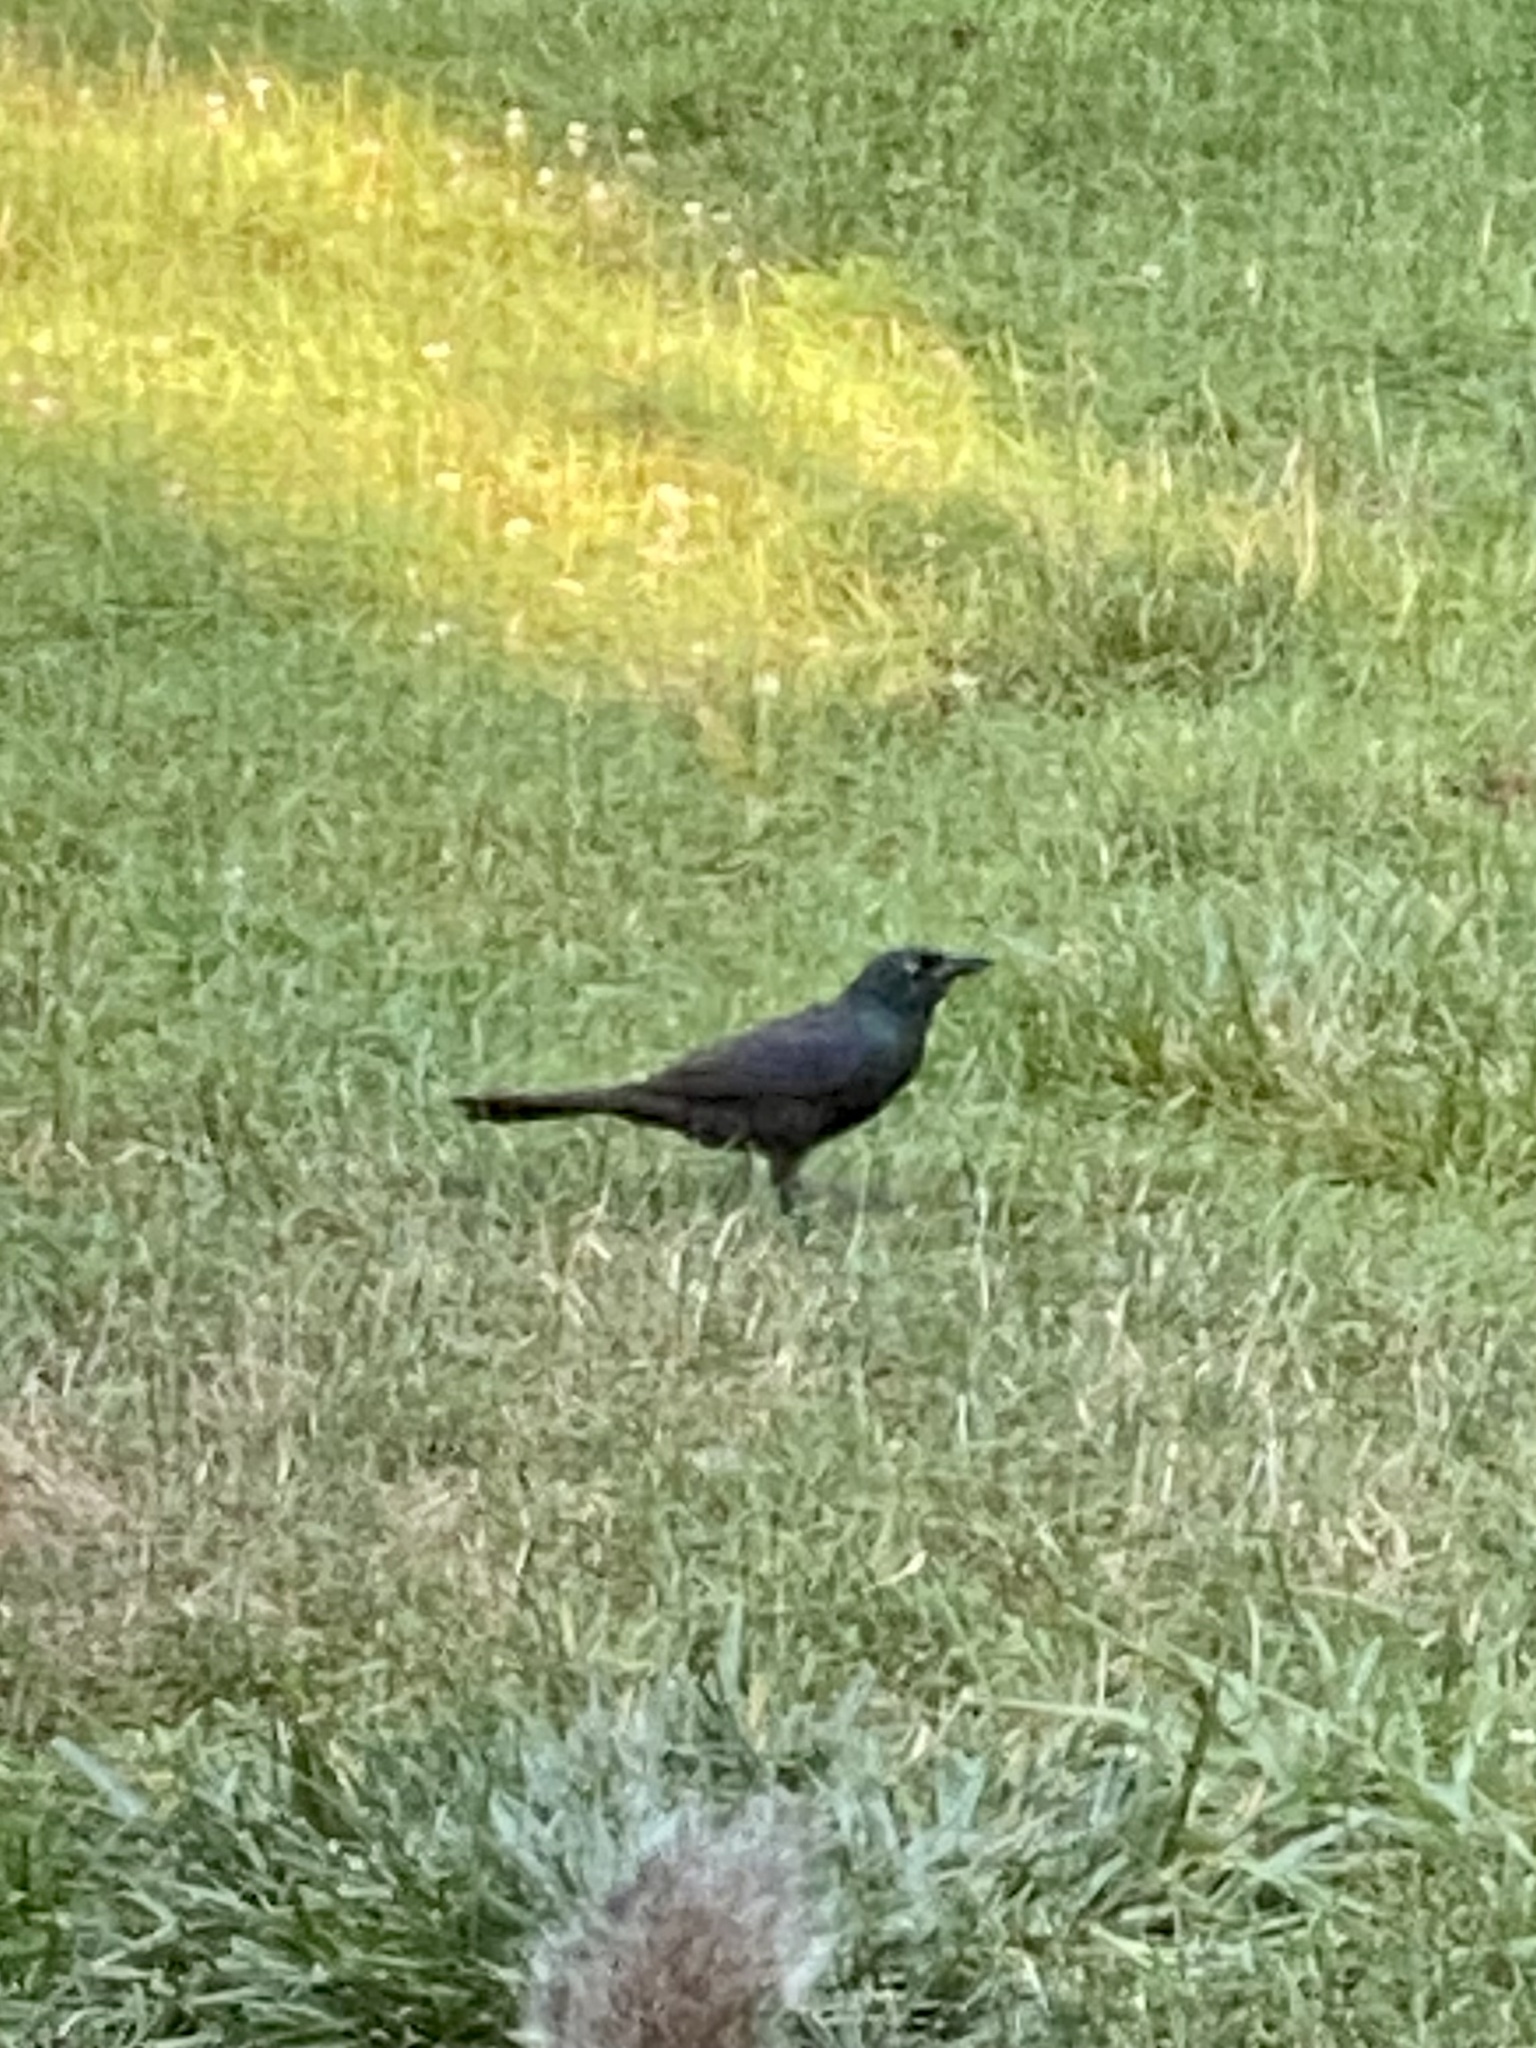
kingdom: Animalia
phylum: Chordata
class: Aves
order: Passeriformes
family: Icteridae
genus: Quiscalus
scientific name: Quiscalus quiscula
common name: Common grackle
